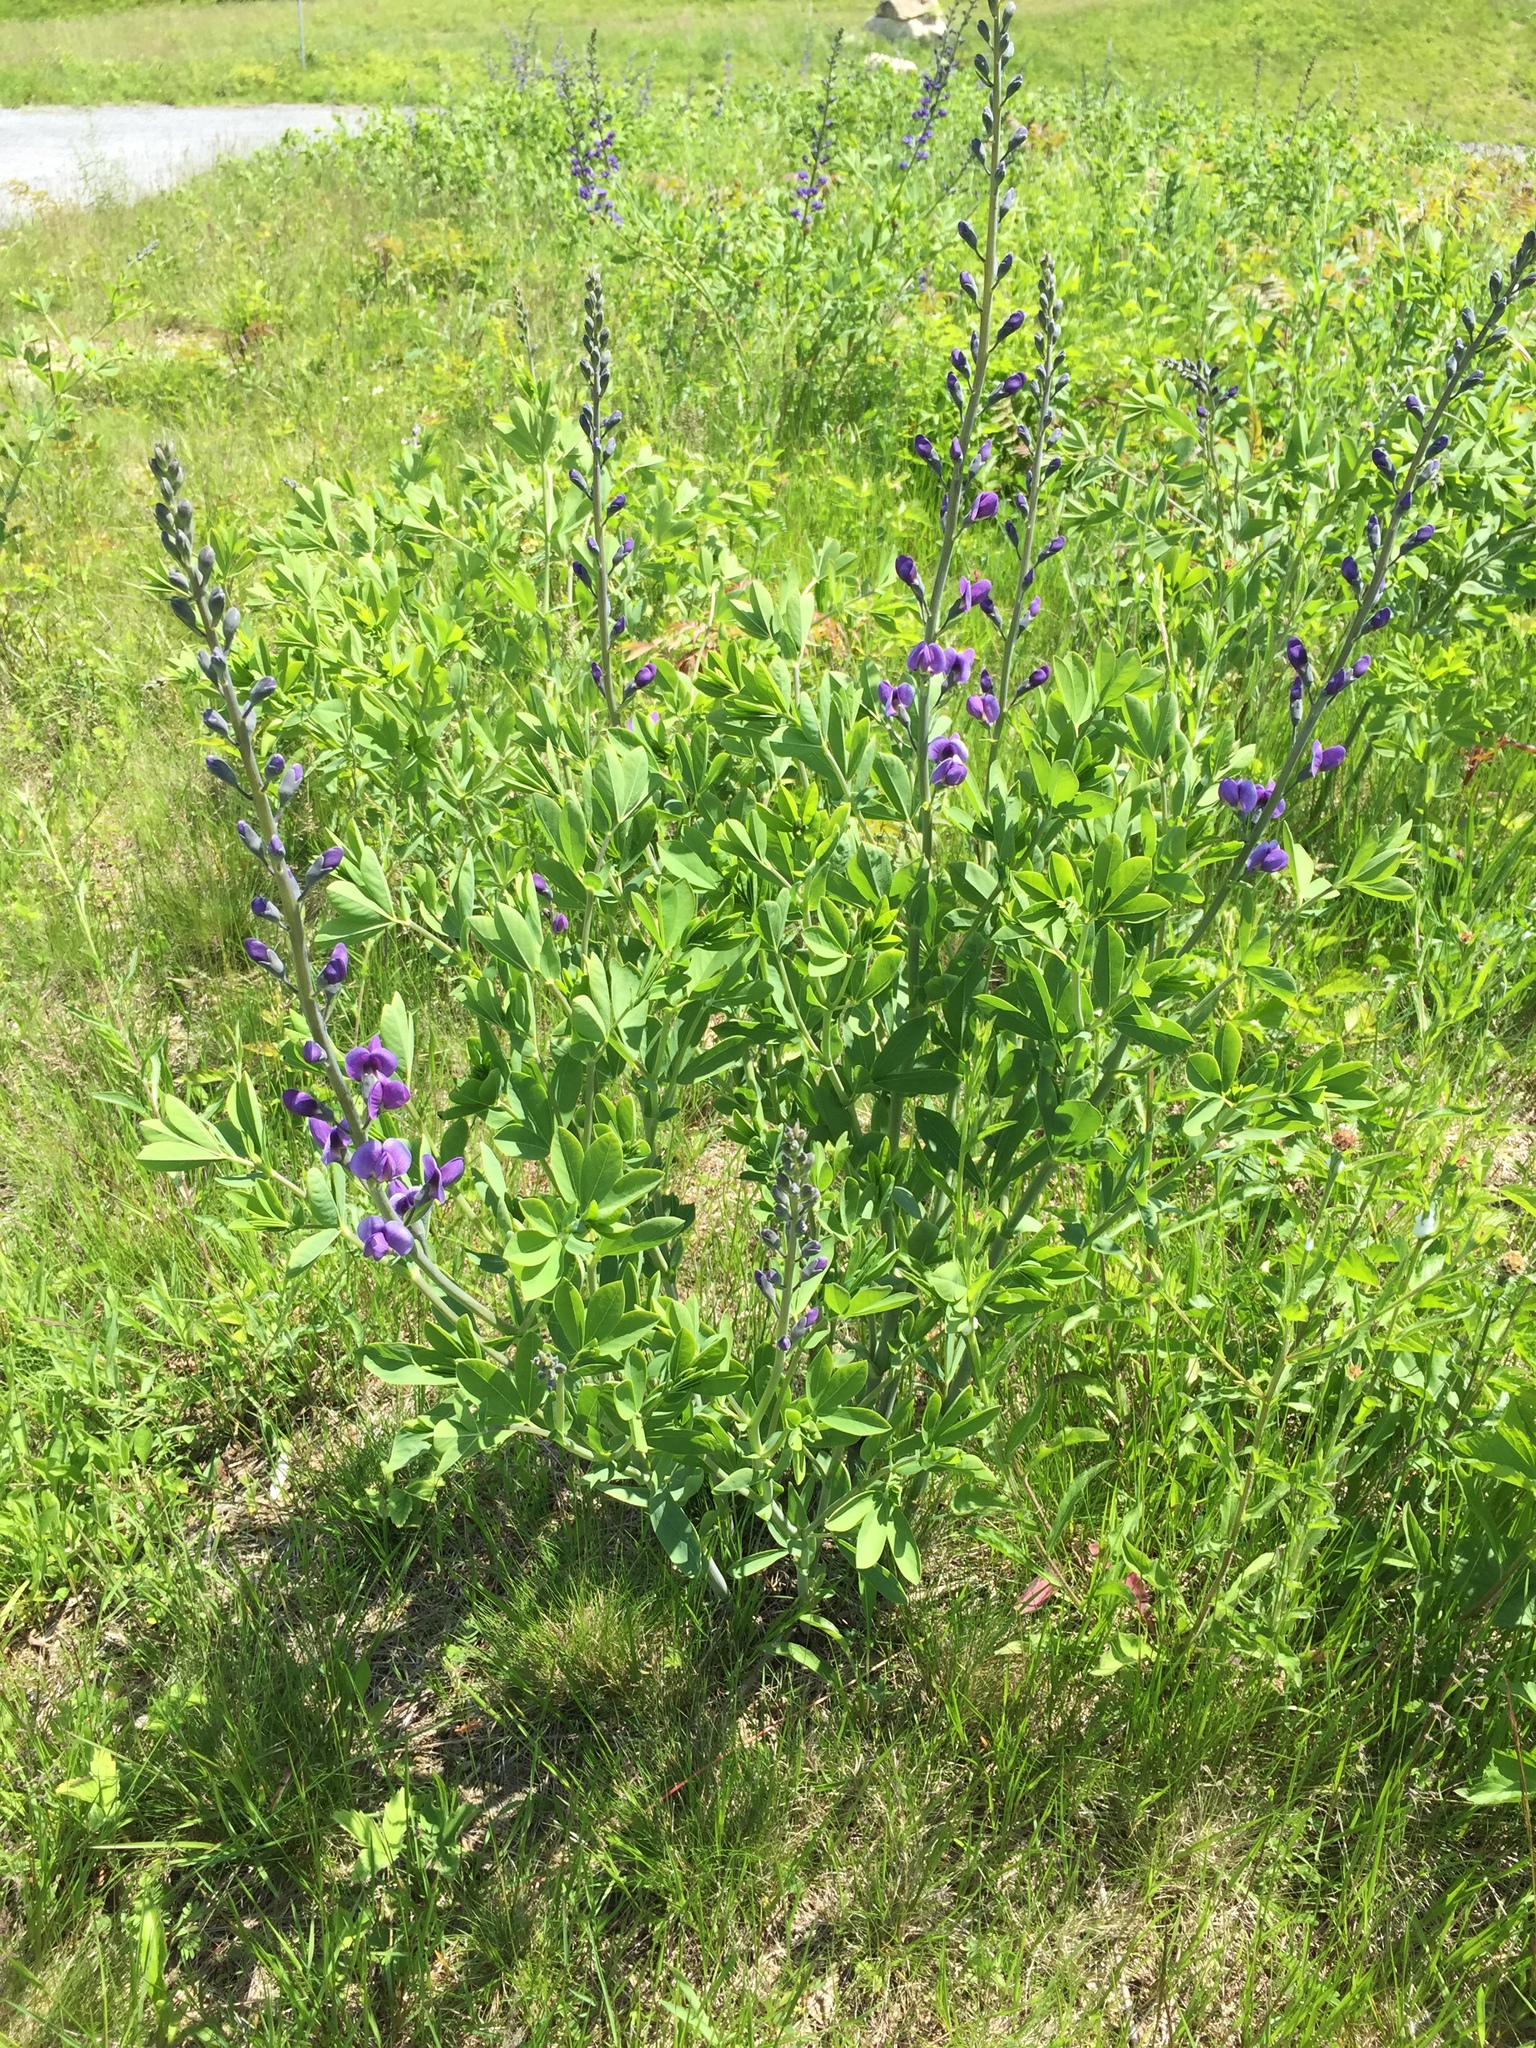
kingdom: Plantae
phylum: Tracheophyta
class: Magnoliopsida
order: Fabales
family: Fabaceae
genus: Baptisia
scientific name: Baptisia australis
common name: Blue false indigo
